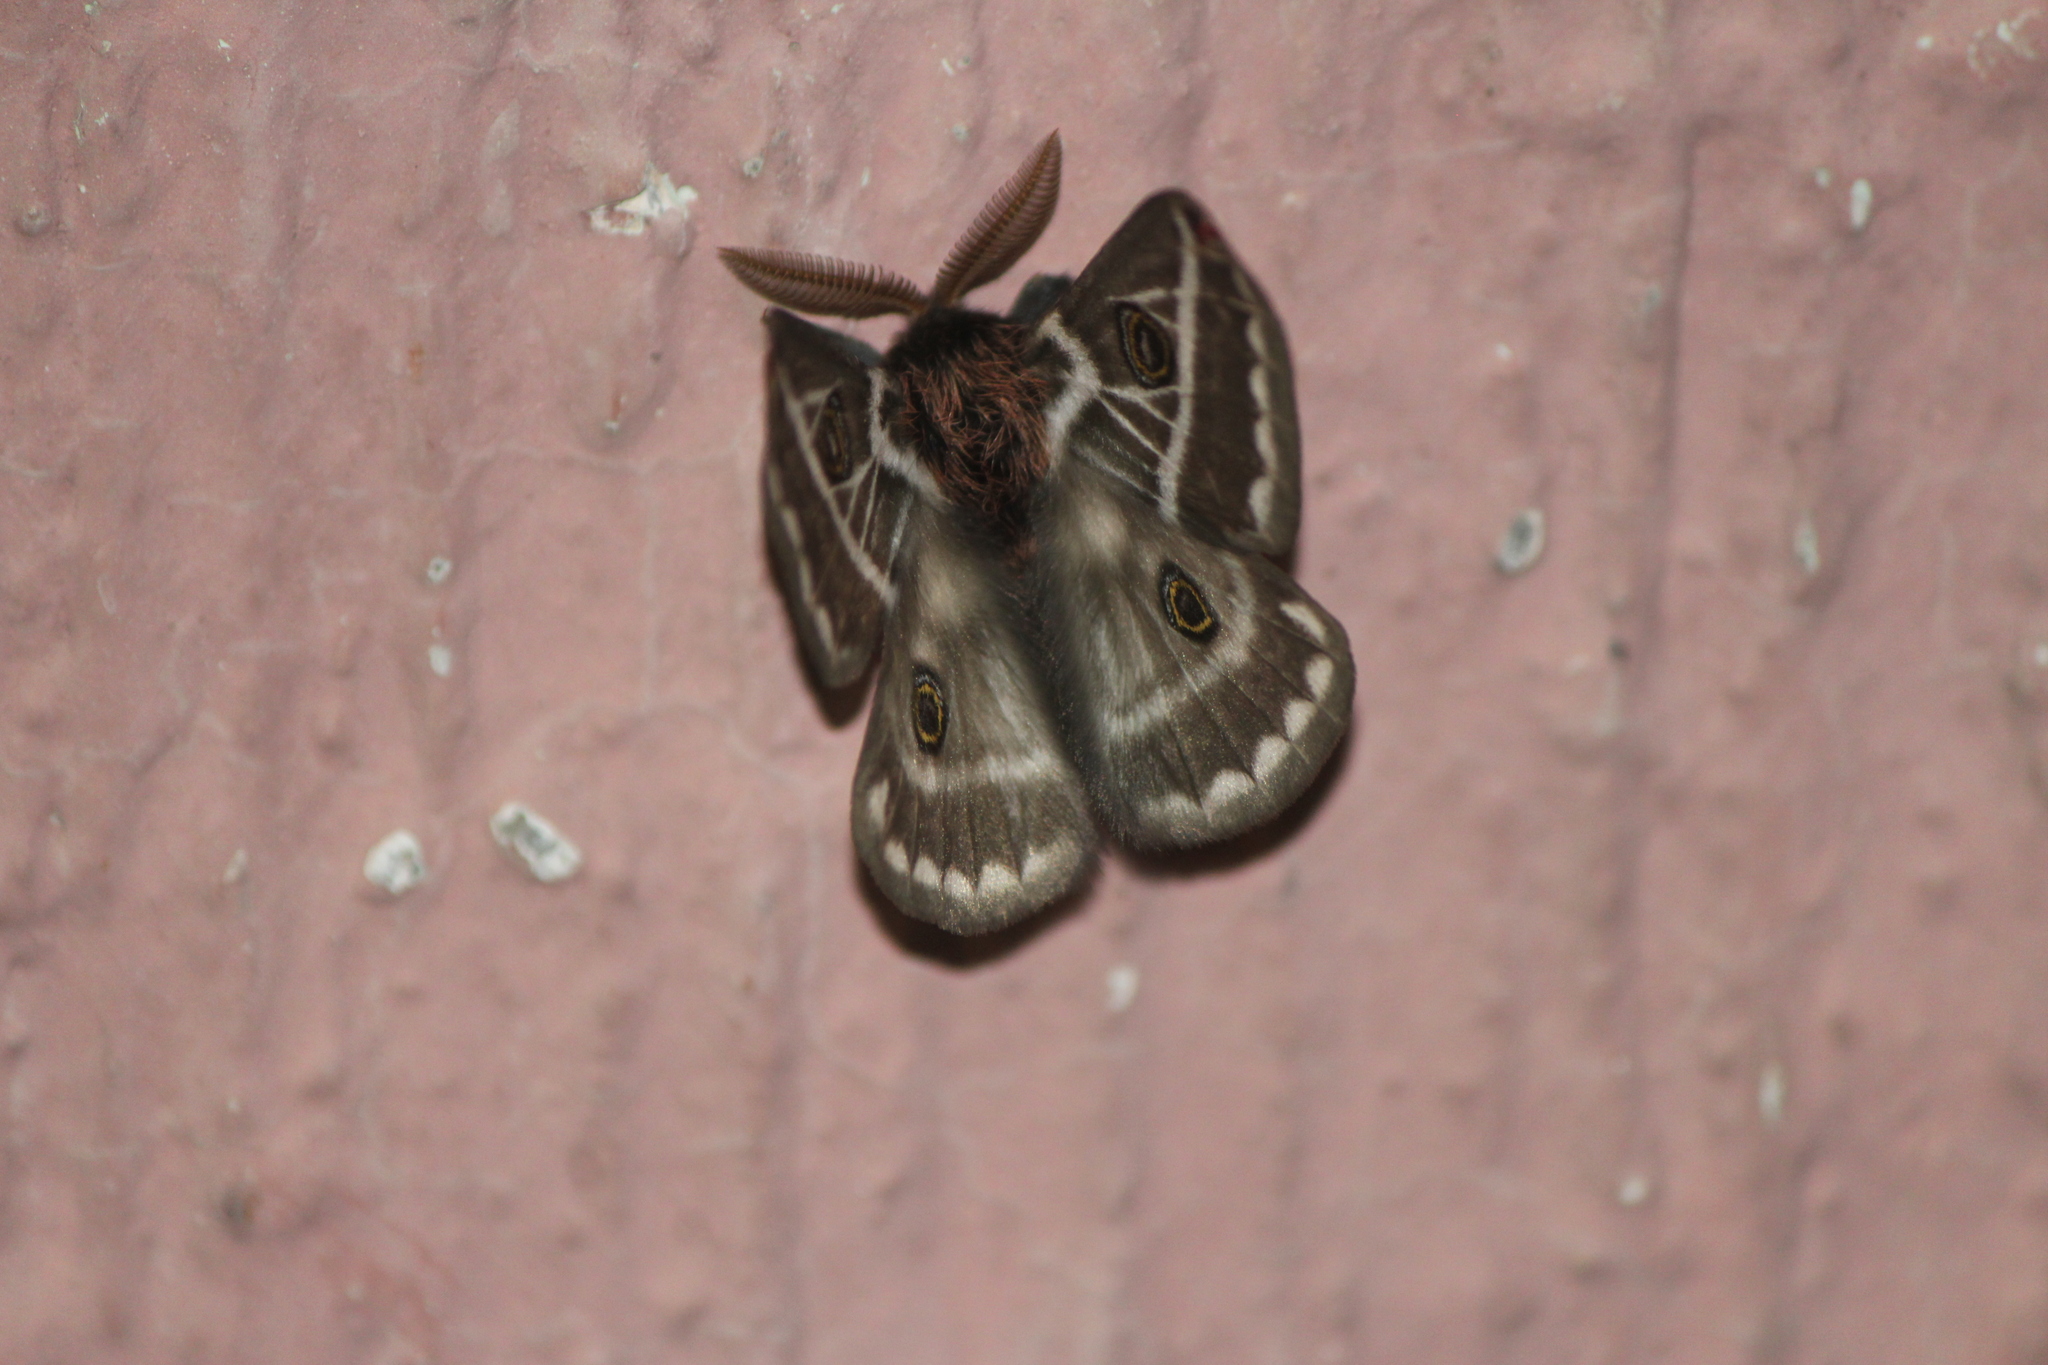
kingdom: Animalia
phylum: Arthropoda
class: Insecta
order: Lepidoptera
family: Saturniidae
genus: Agapema
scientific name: Agapema
